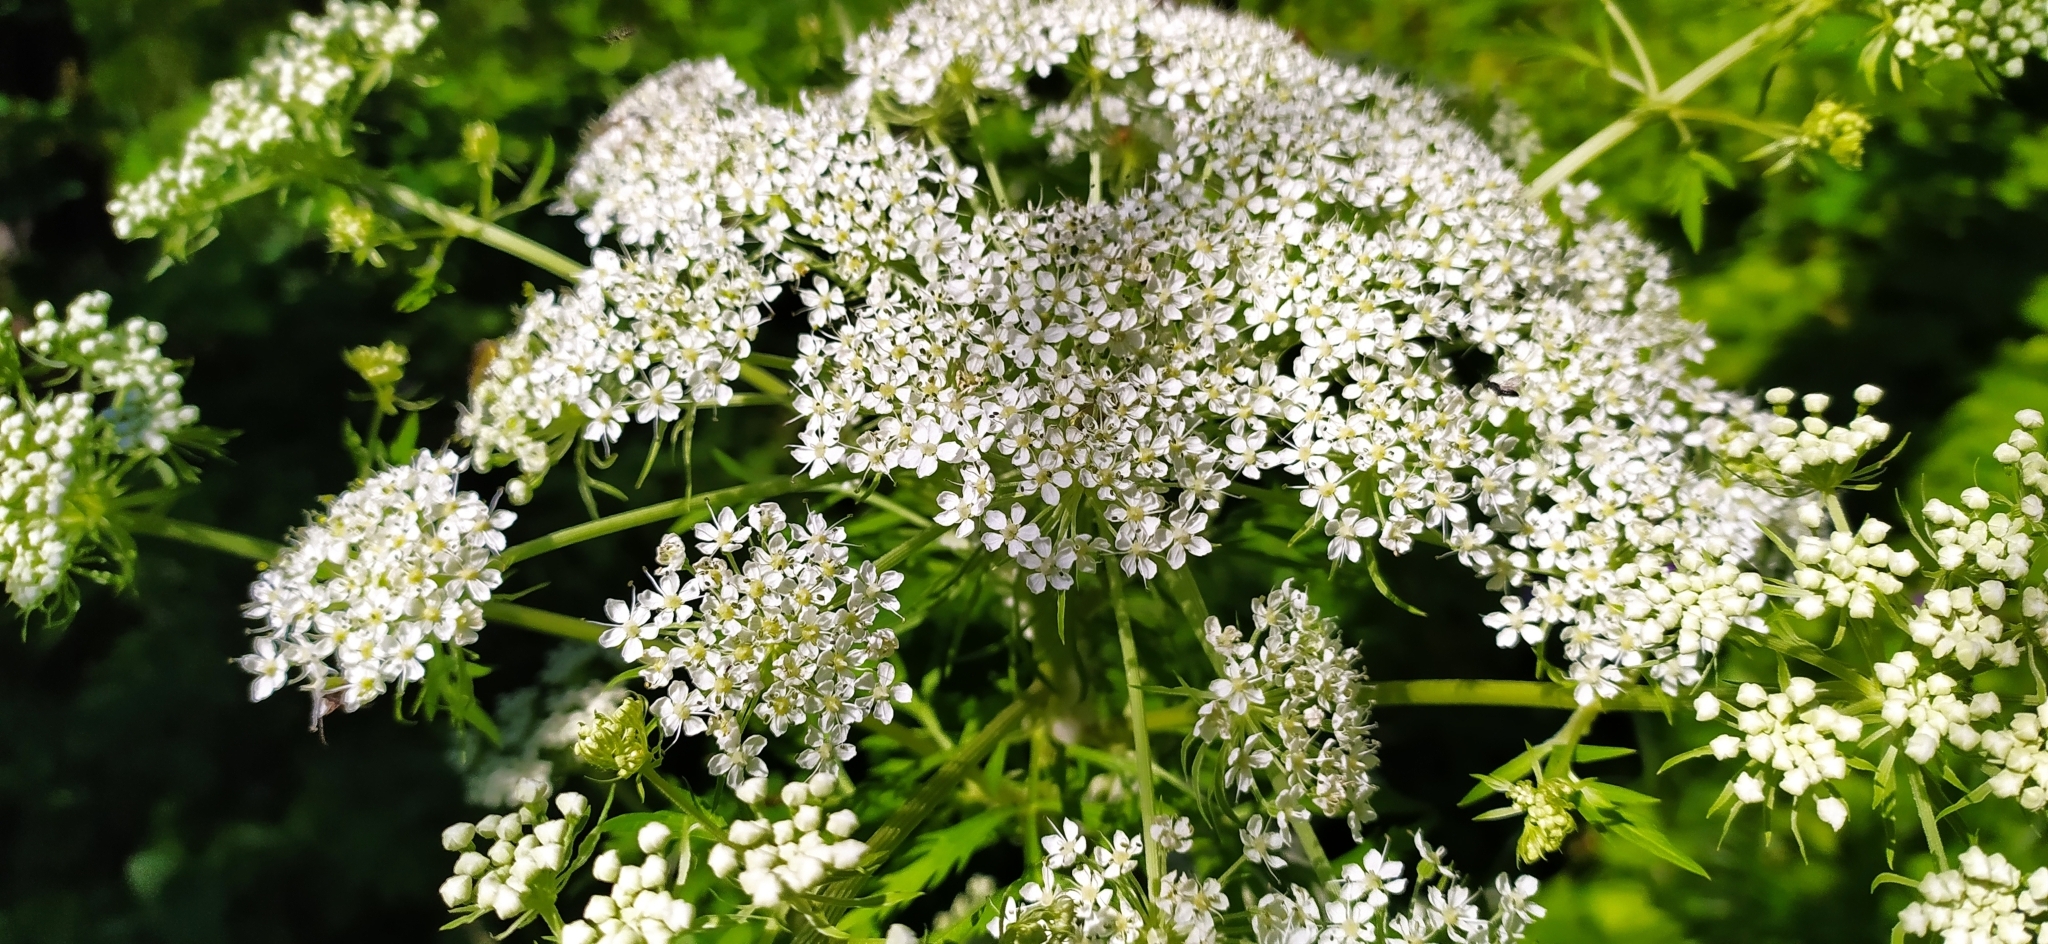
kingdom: Plantae
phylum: Tracheophyta
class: Magnoliopsida
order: Apiales
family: Apiaceae
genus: Pleurospermum
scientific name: Pleurospermum uralense
